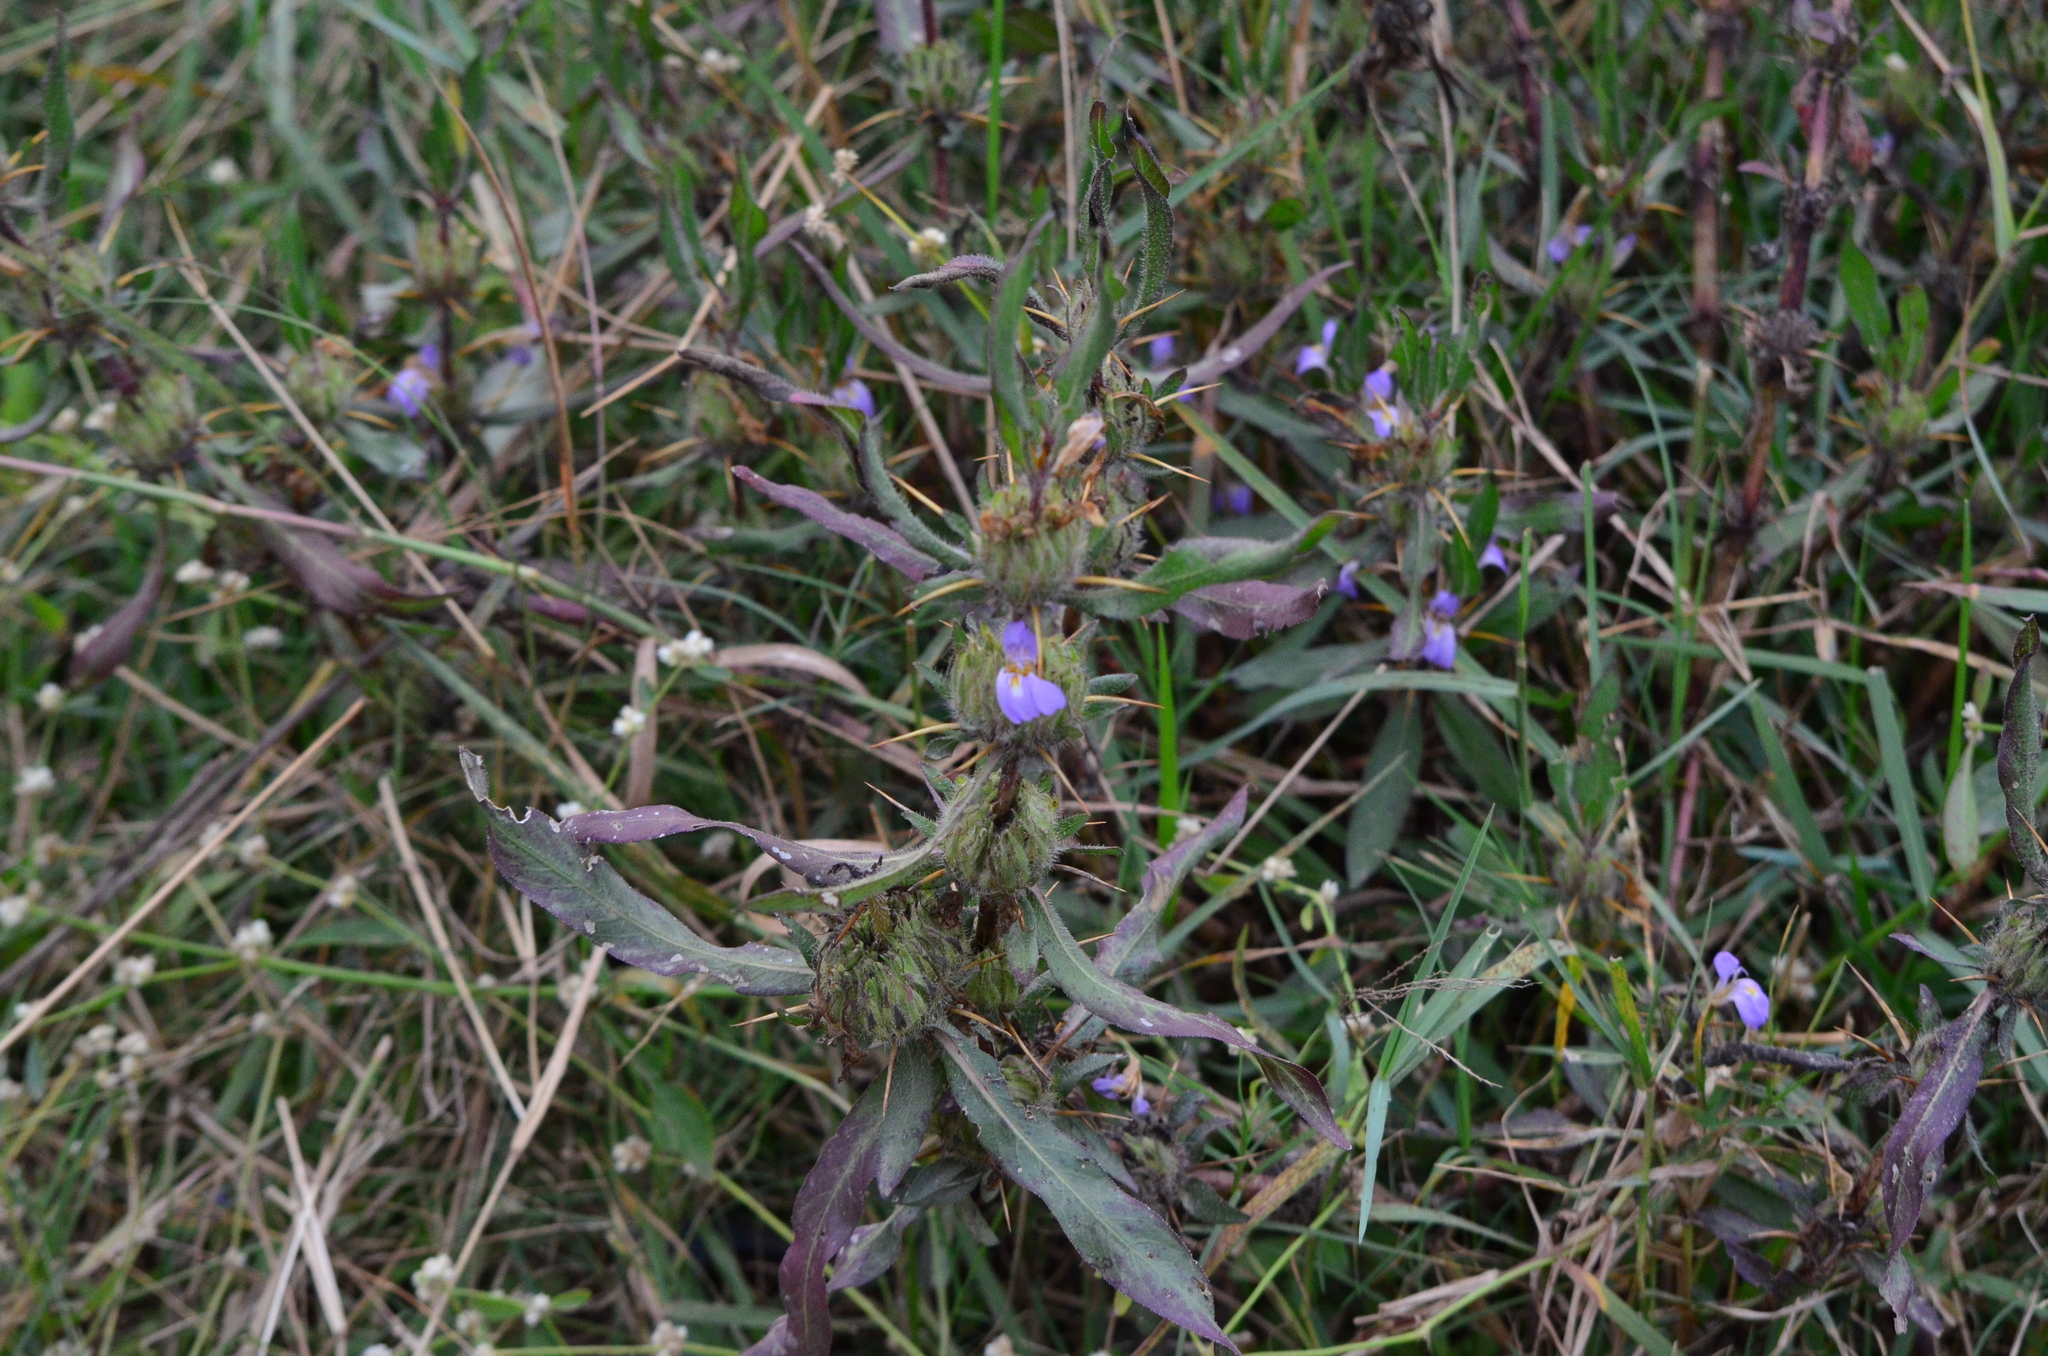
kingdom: Plantae
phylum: Tracheophyta
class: Magnoliopsida
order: Lamiales
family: Acanthaceae
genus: Hygrophila
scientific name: Hygrophila auriculata
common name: Hygrophila
